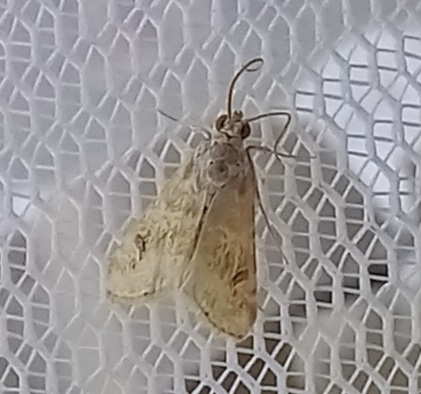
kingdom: Animalia
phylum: Arthropoda
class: Insecta
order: Lepidoptera
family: Crambidae
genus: Hellula
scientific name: Hellula undalis
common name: Cabbage webworm
